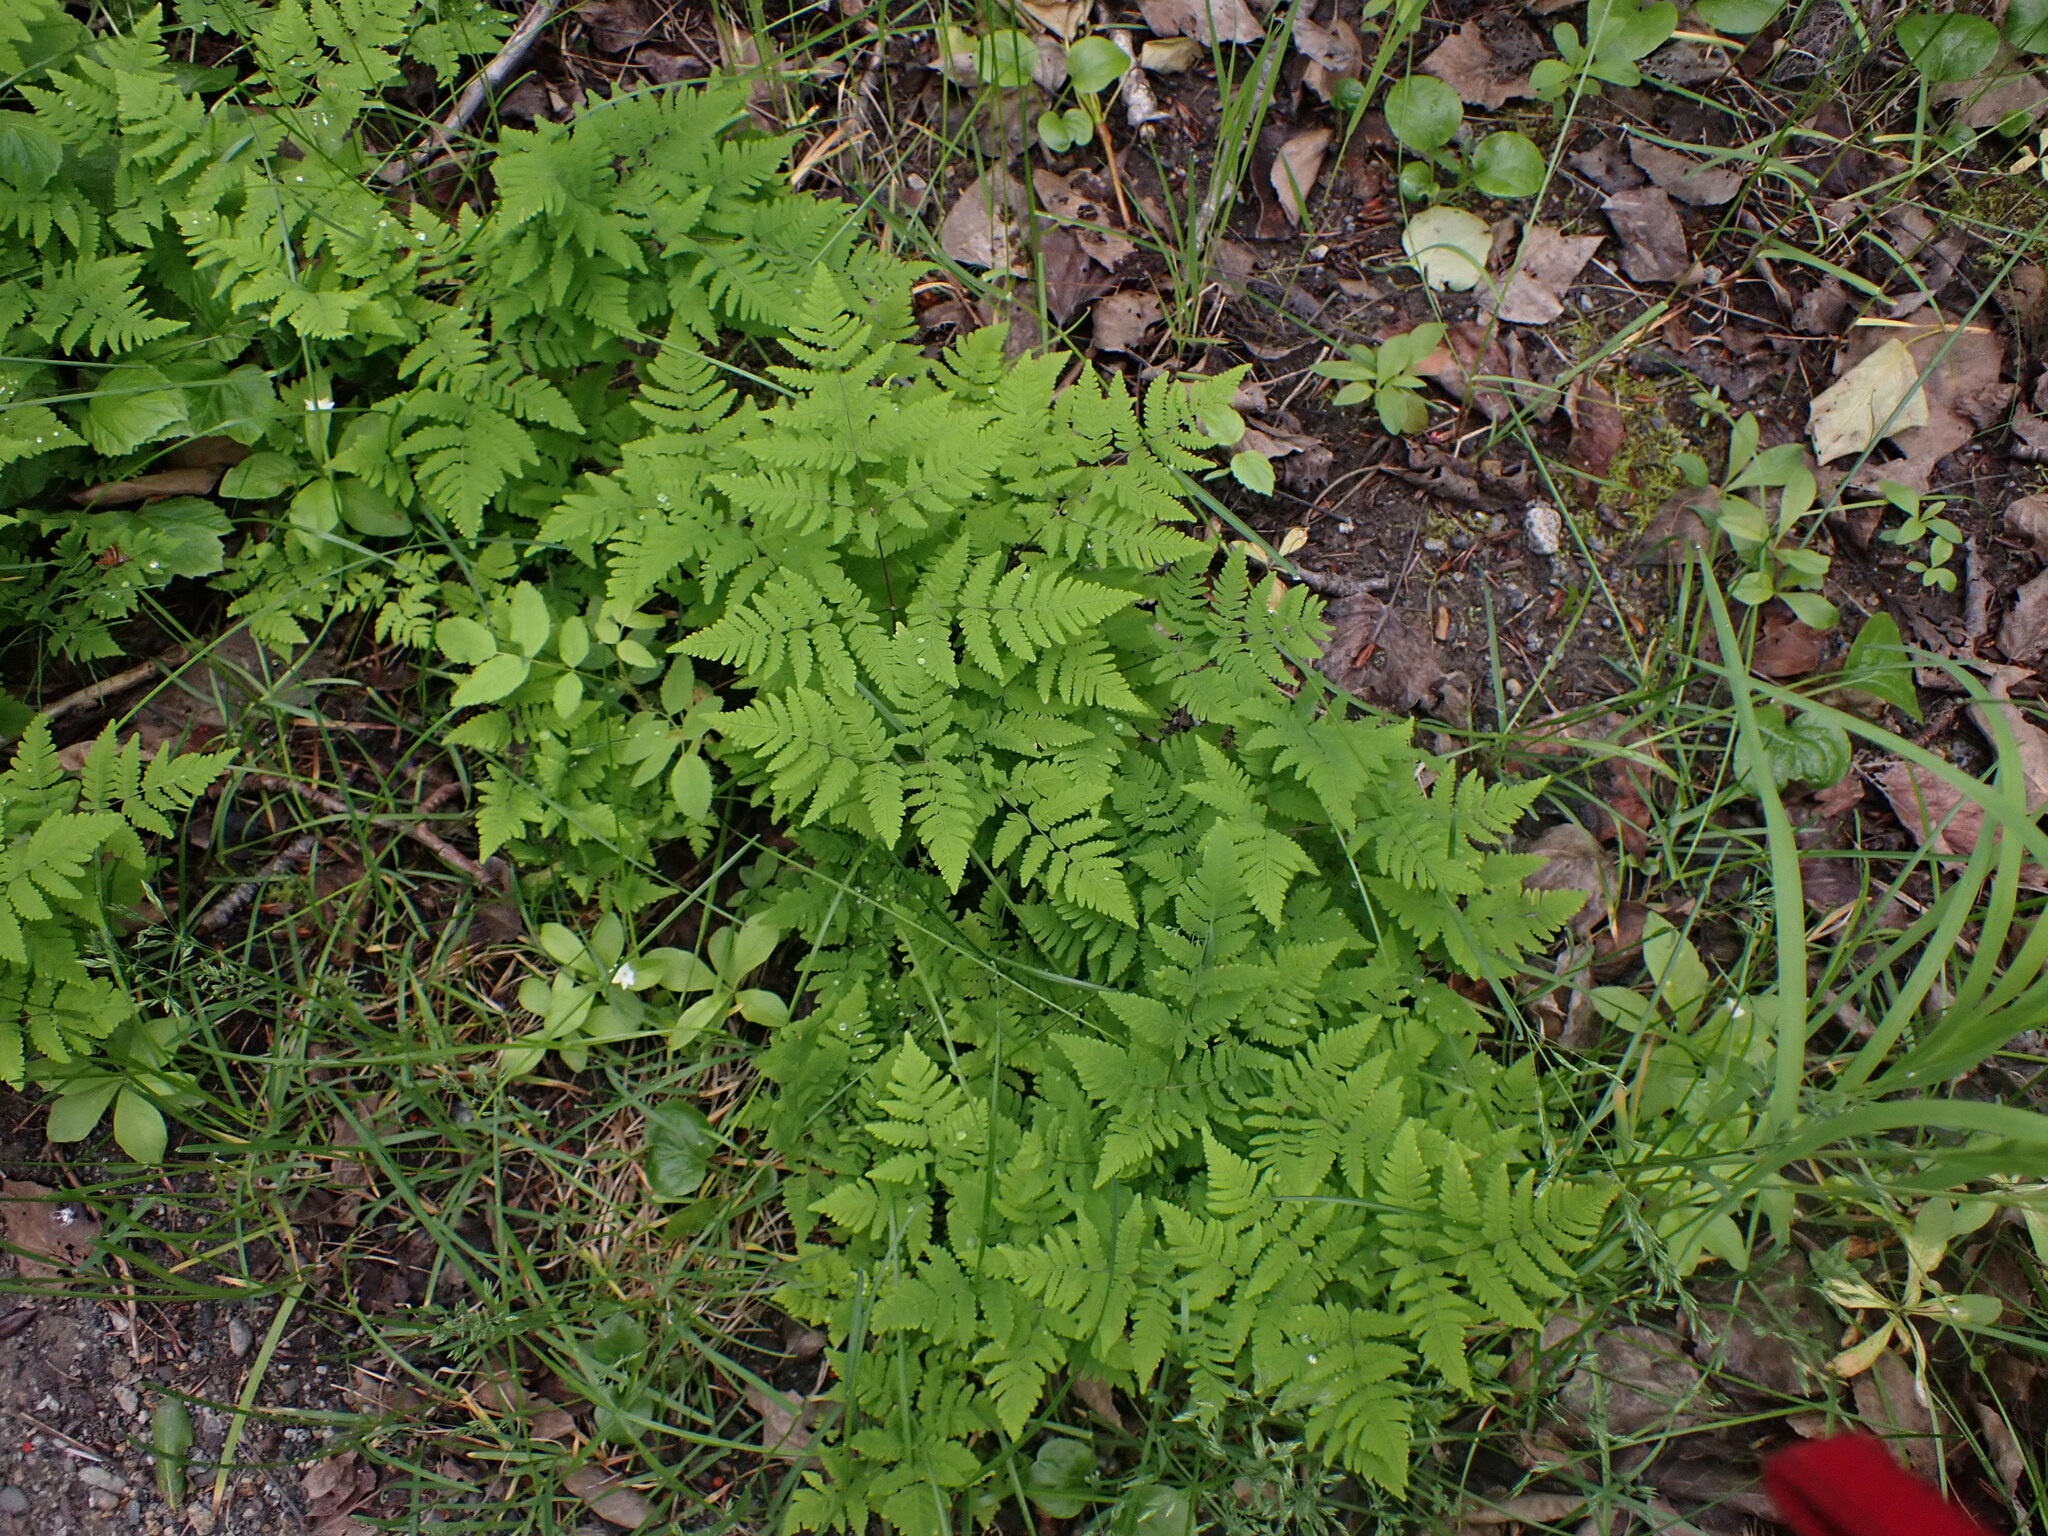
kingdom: Plantae
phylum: Tracheophyta
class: Polypodiopsida
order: Polypodiales
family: Cystopteridaceae
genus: Gymnocarpium
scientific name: Gymnocarpium disjunctum
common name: Western oak fern
